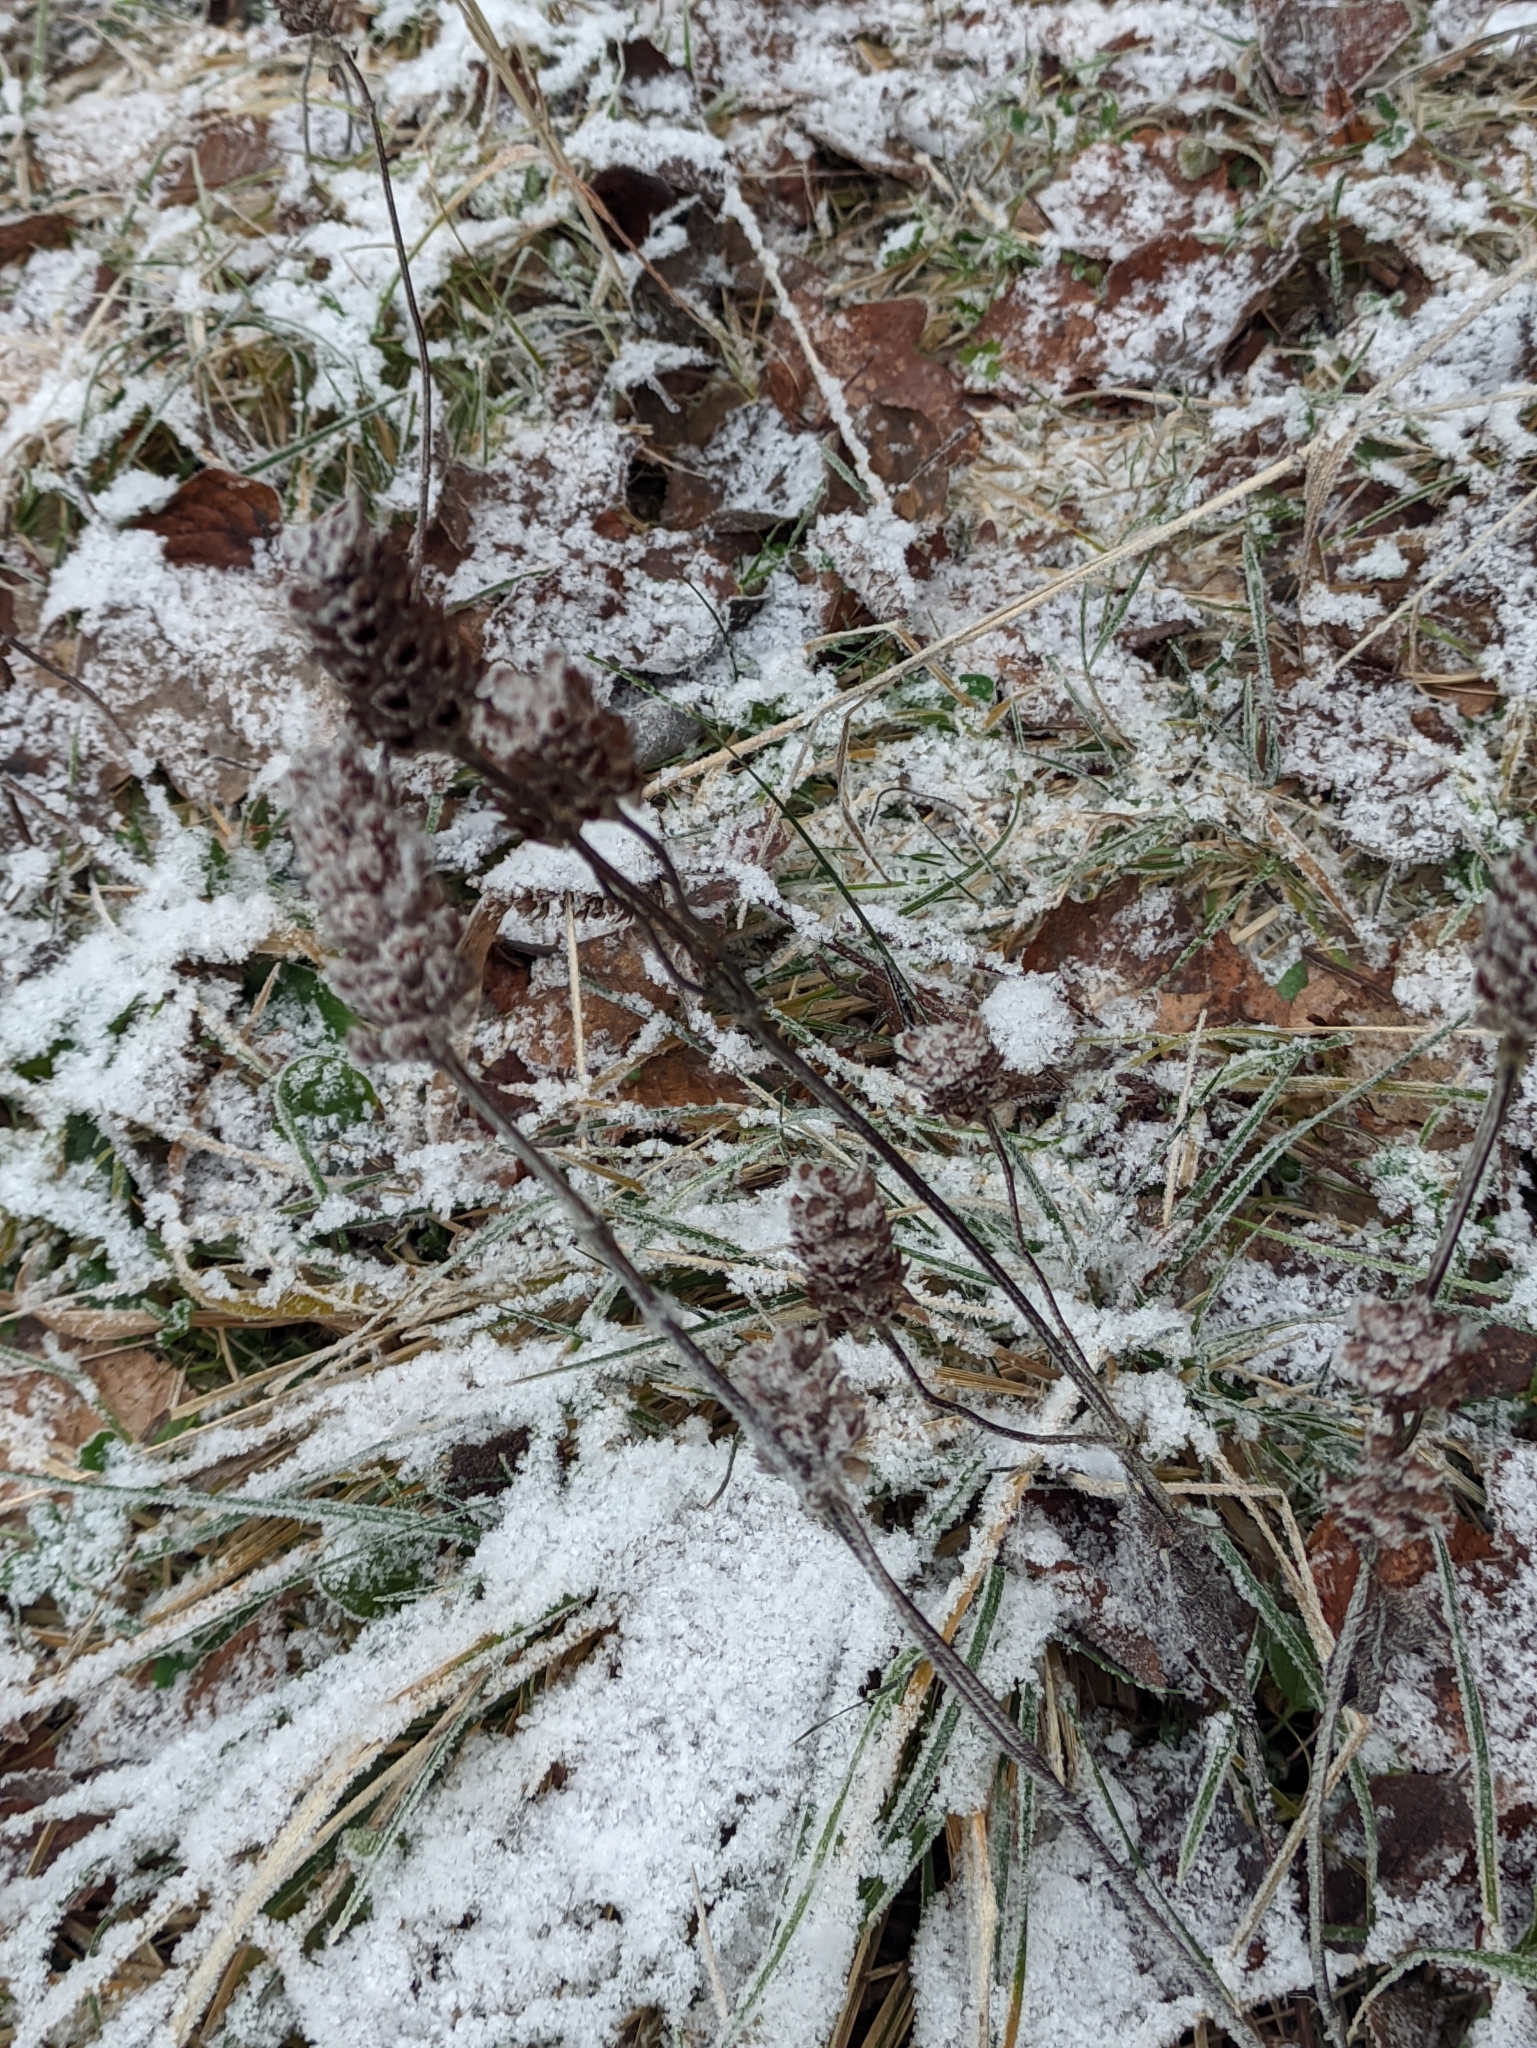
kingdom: Plantae
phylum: Tracheophyta
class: Magnoliopsida
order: Lamiales
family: Lamiaceae
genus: Prunella
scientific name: Prunella vulgaris
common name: Heal-all
